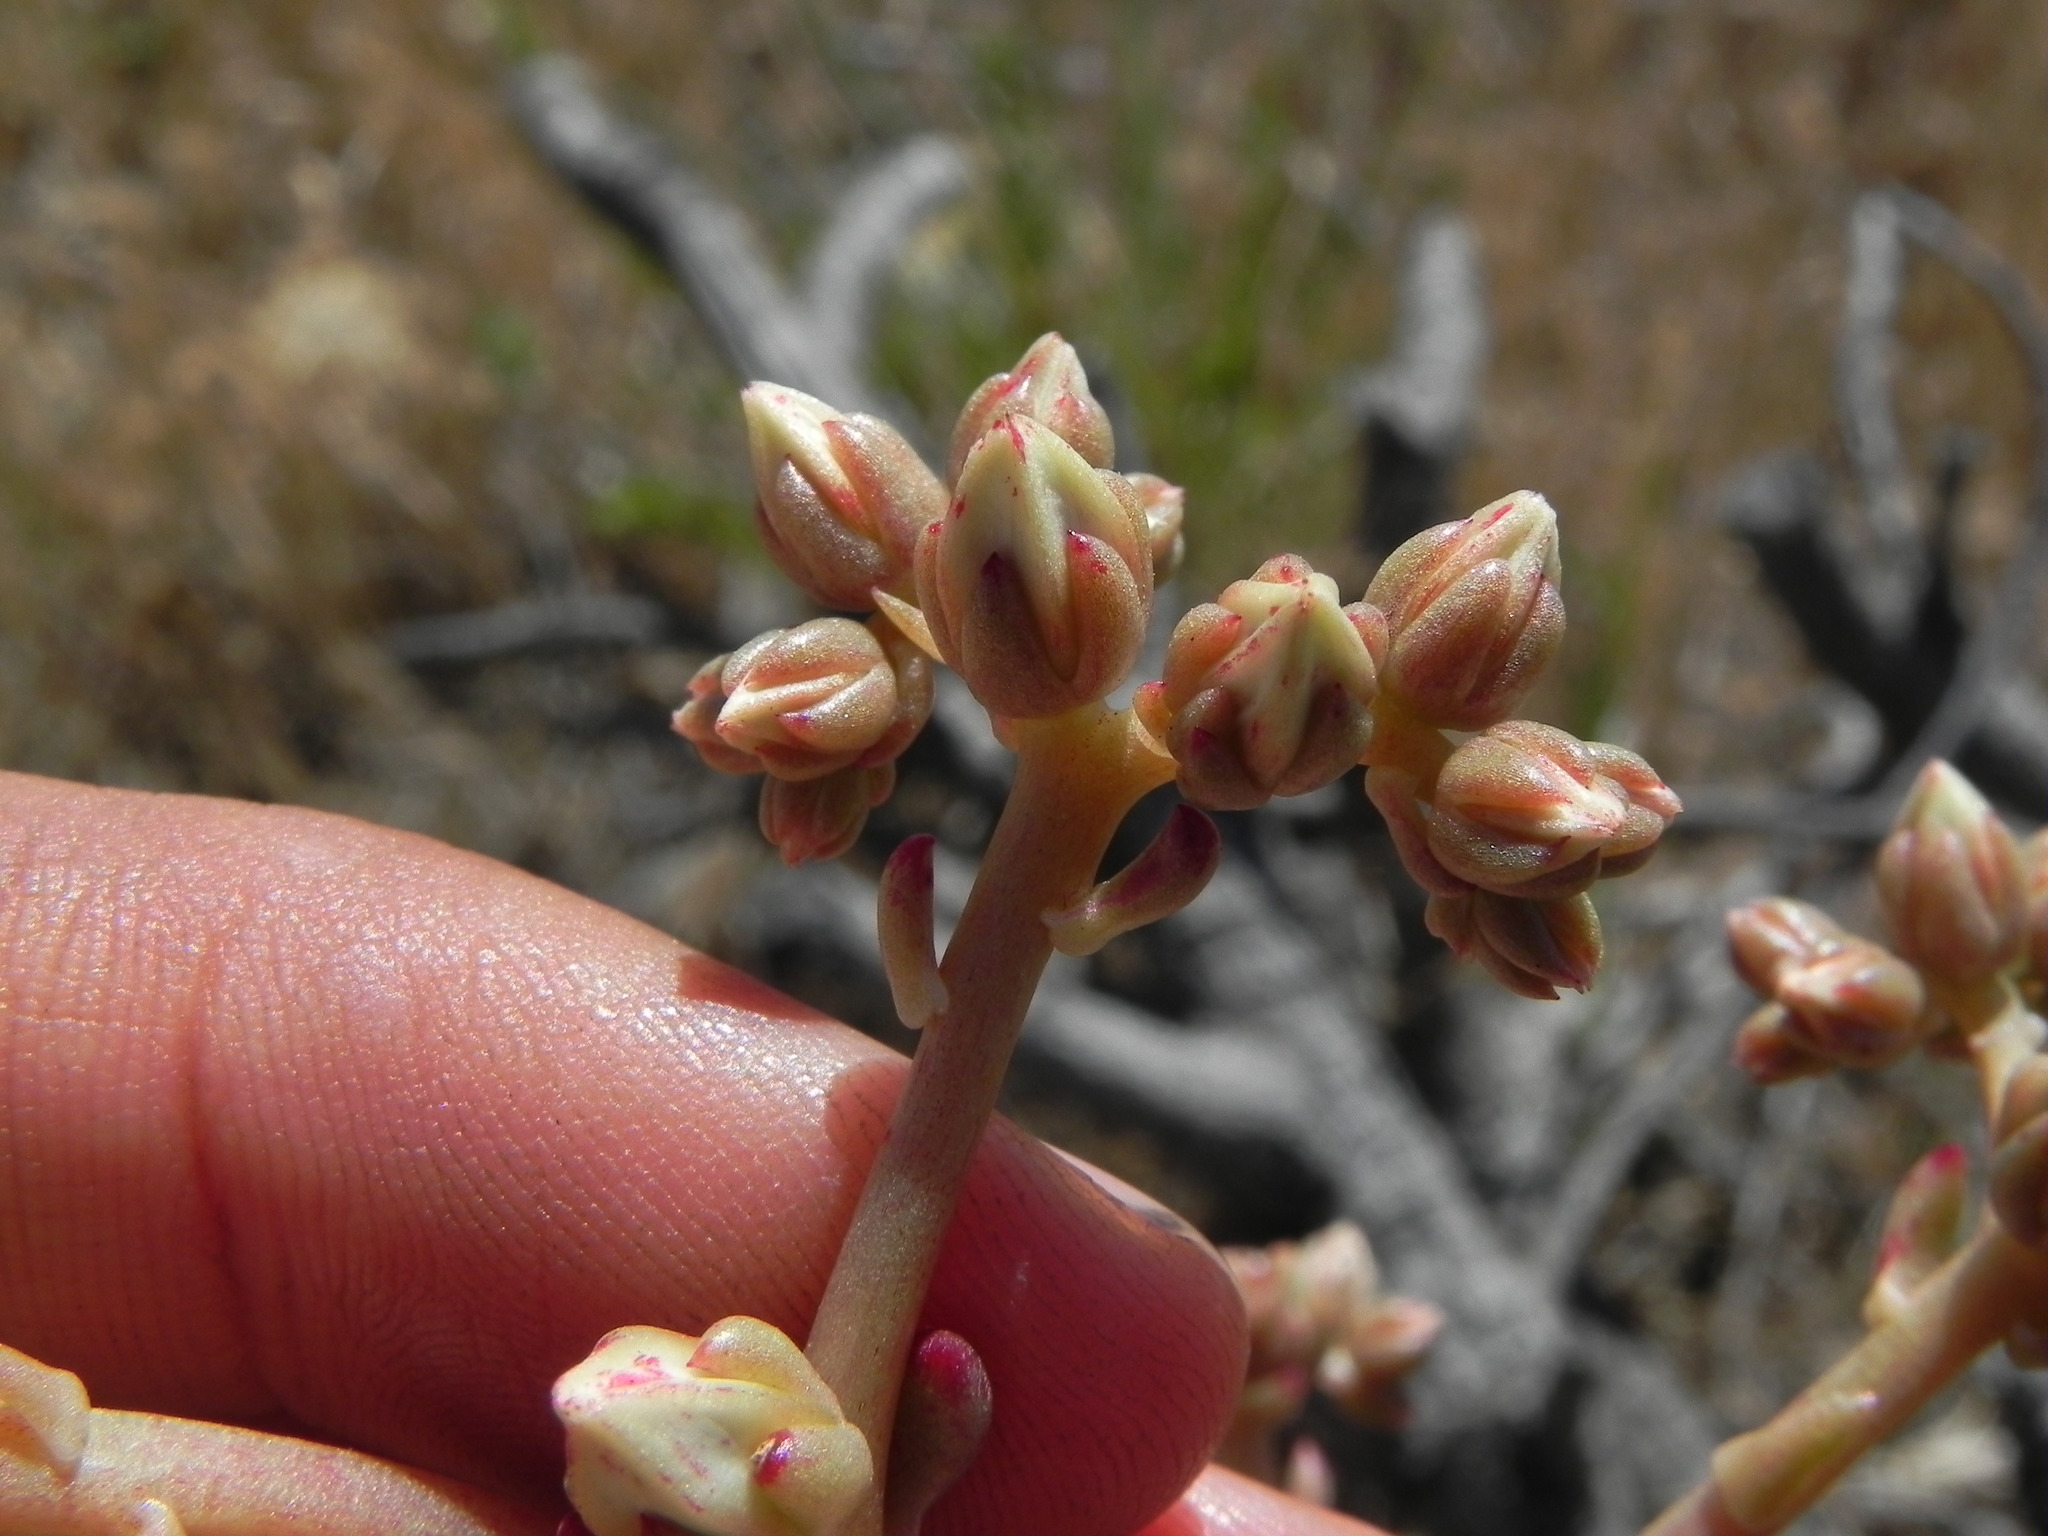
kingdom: Plantae
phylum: Tracheophyta
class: Magnoliopsida
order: Saxifragales
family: Crassulaceae
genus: Dudleya
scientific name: Dudleya edulis
